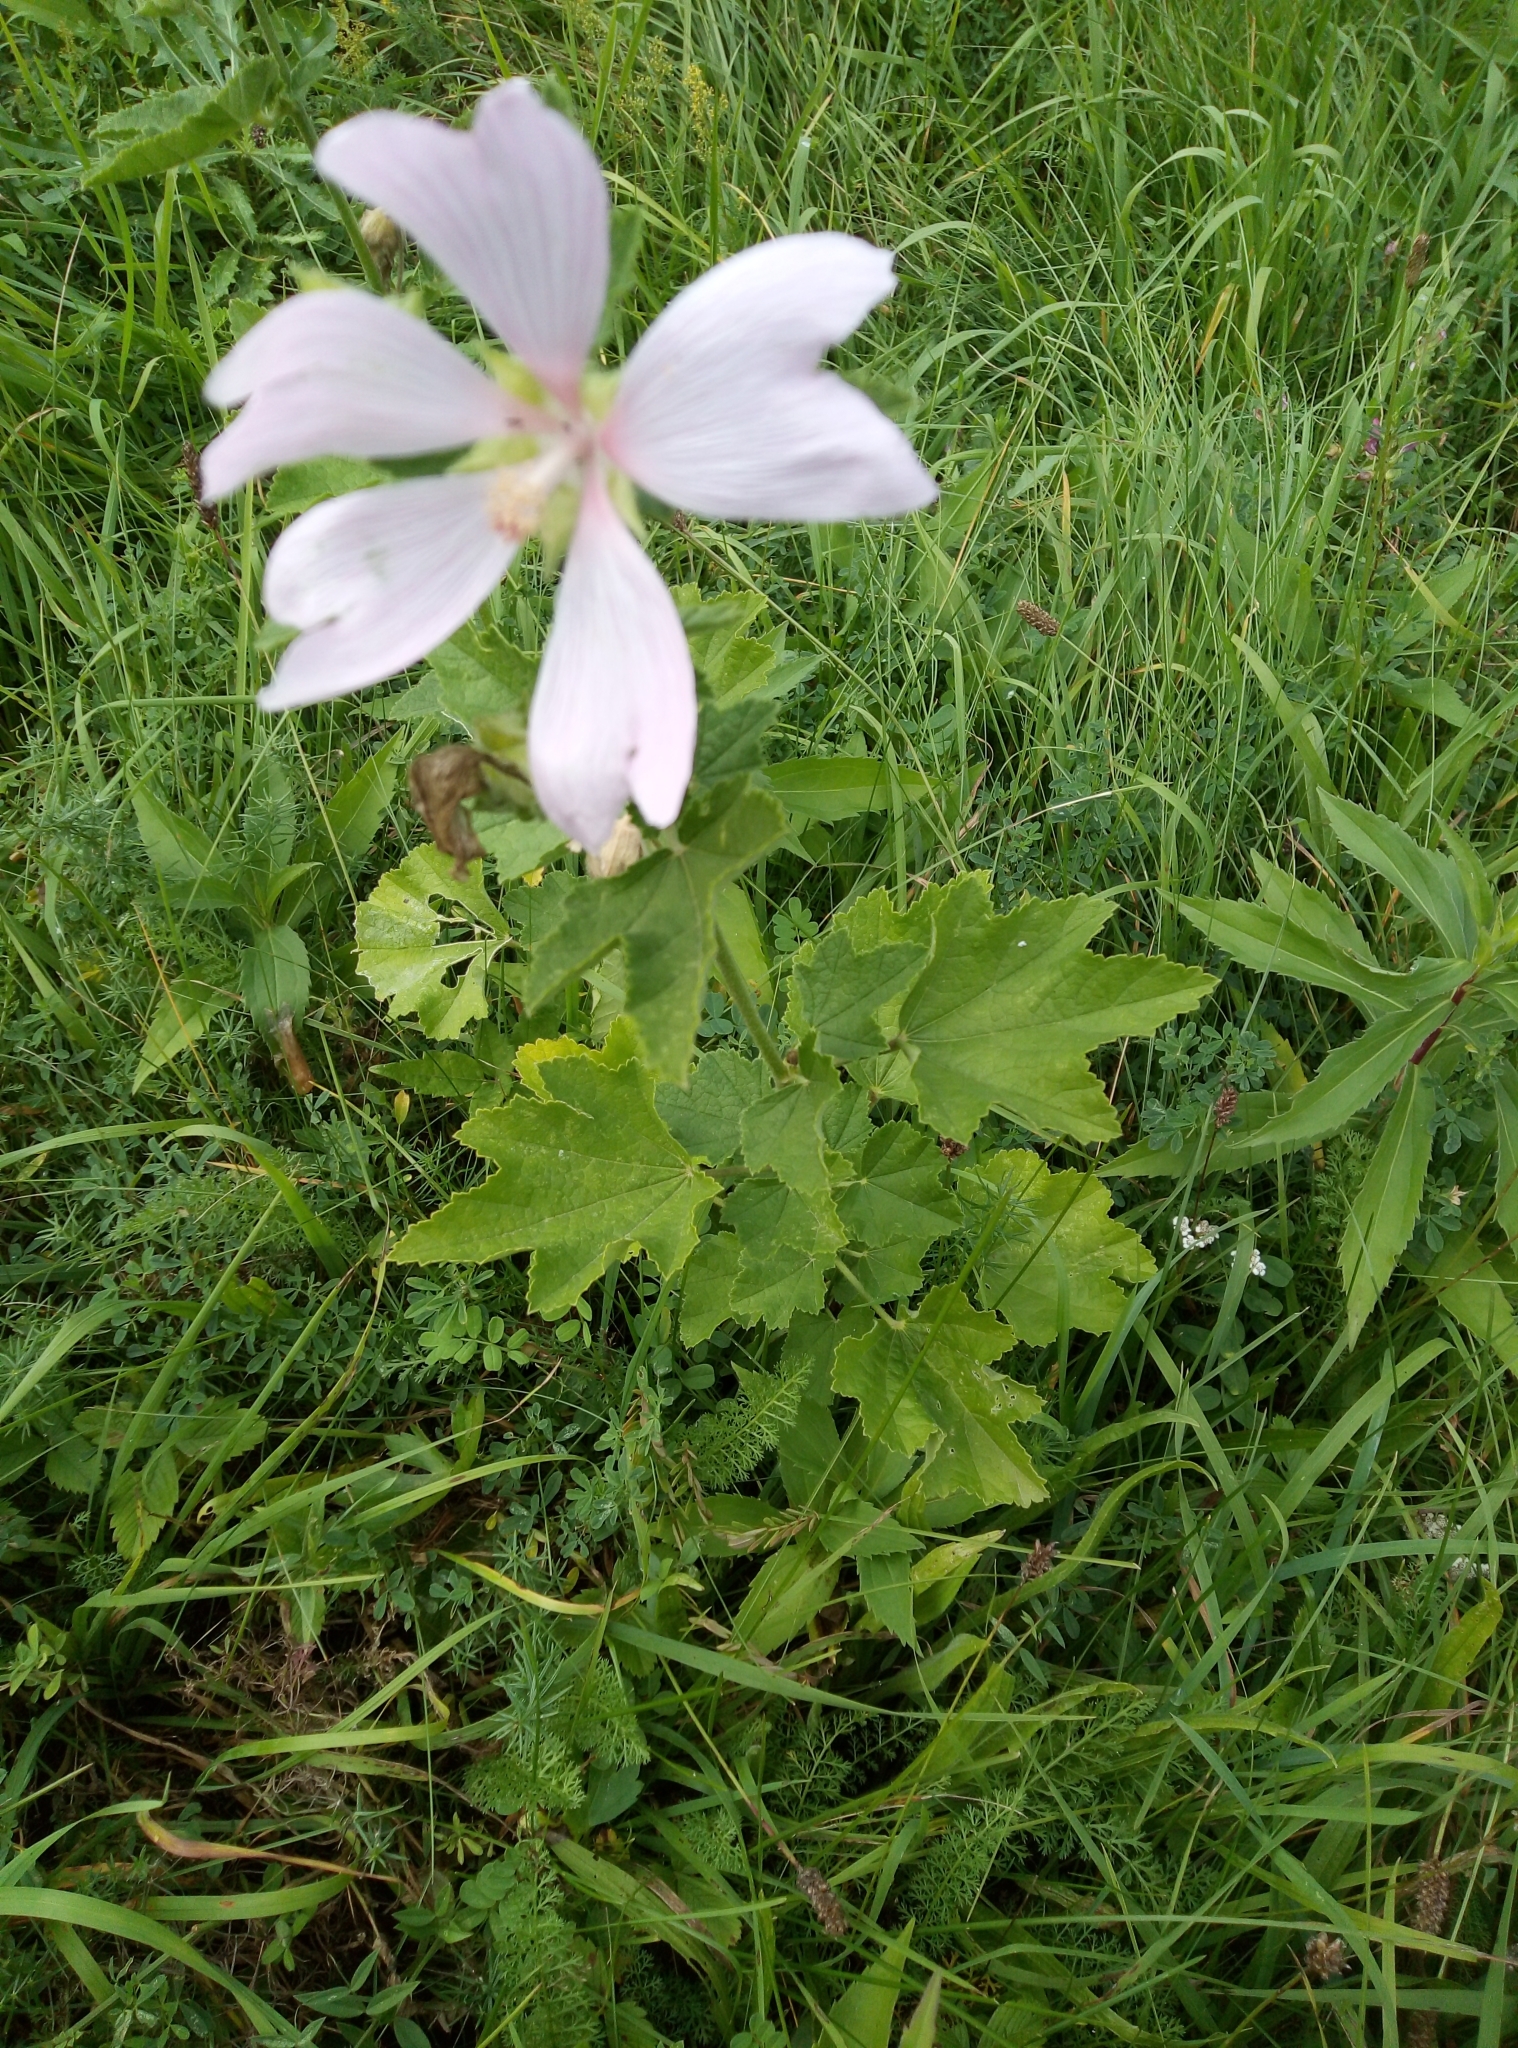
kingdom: Plantae
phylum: Tracheophyta
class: Magnoliopsida
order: Malvales
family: Malvaceae
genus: Malva
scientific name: Malva thuringiaca
